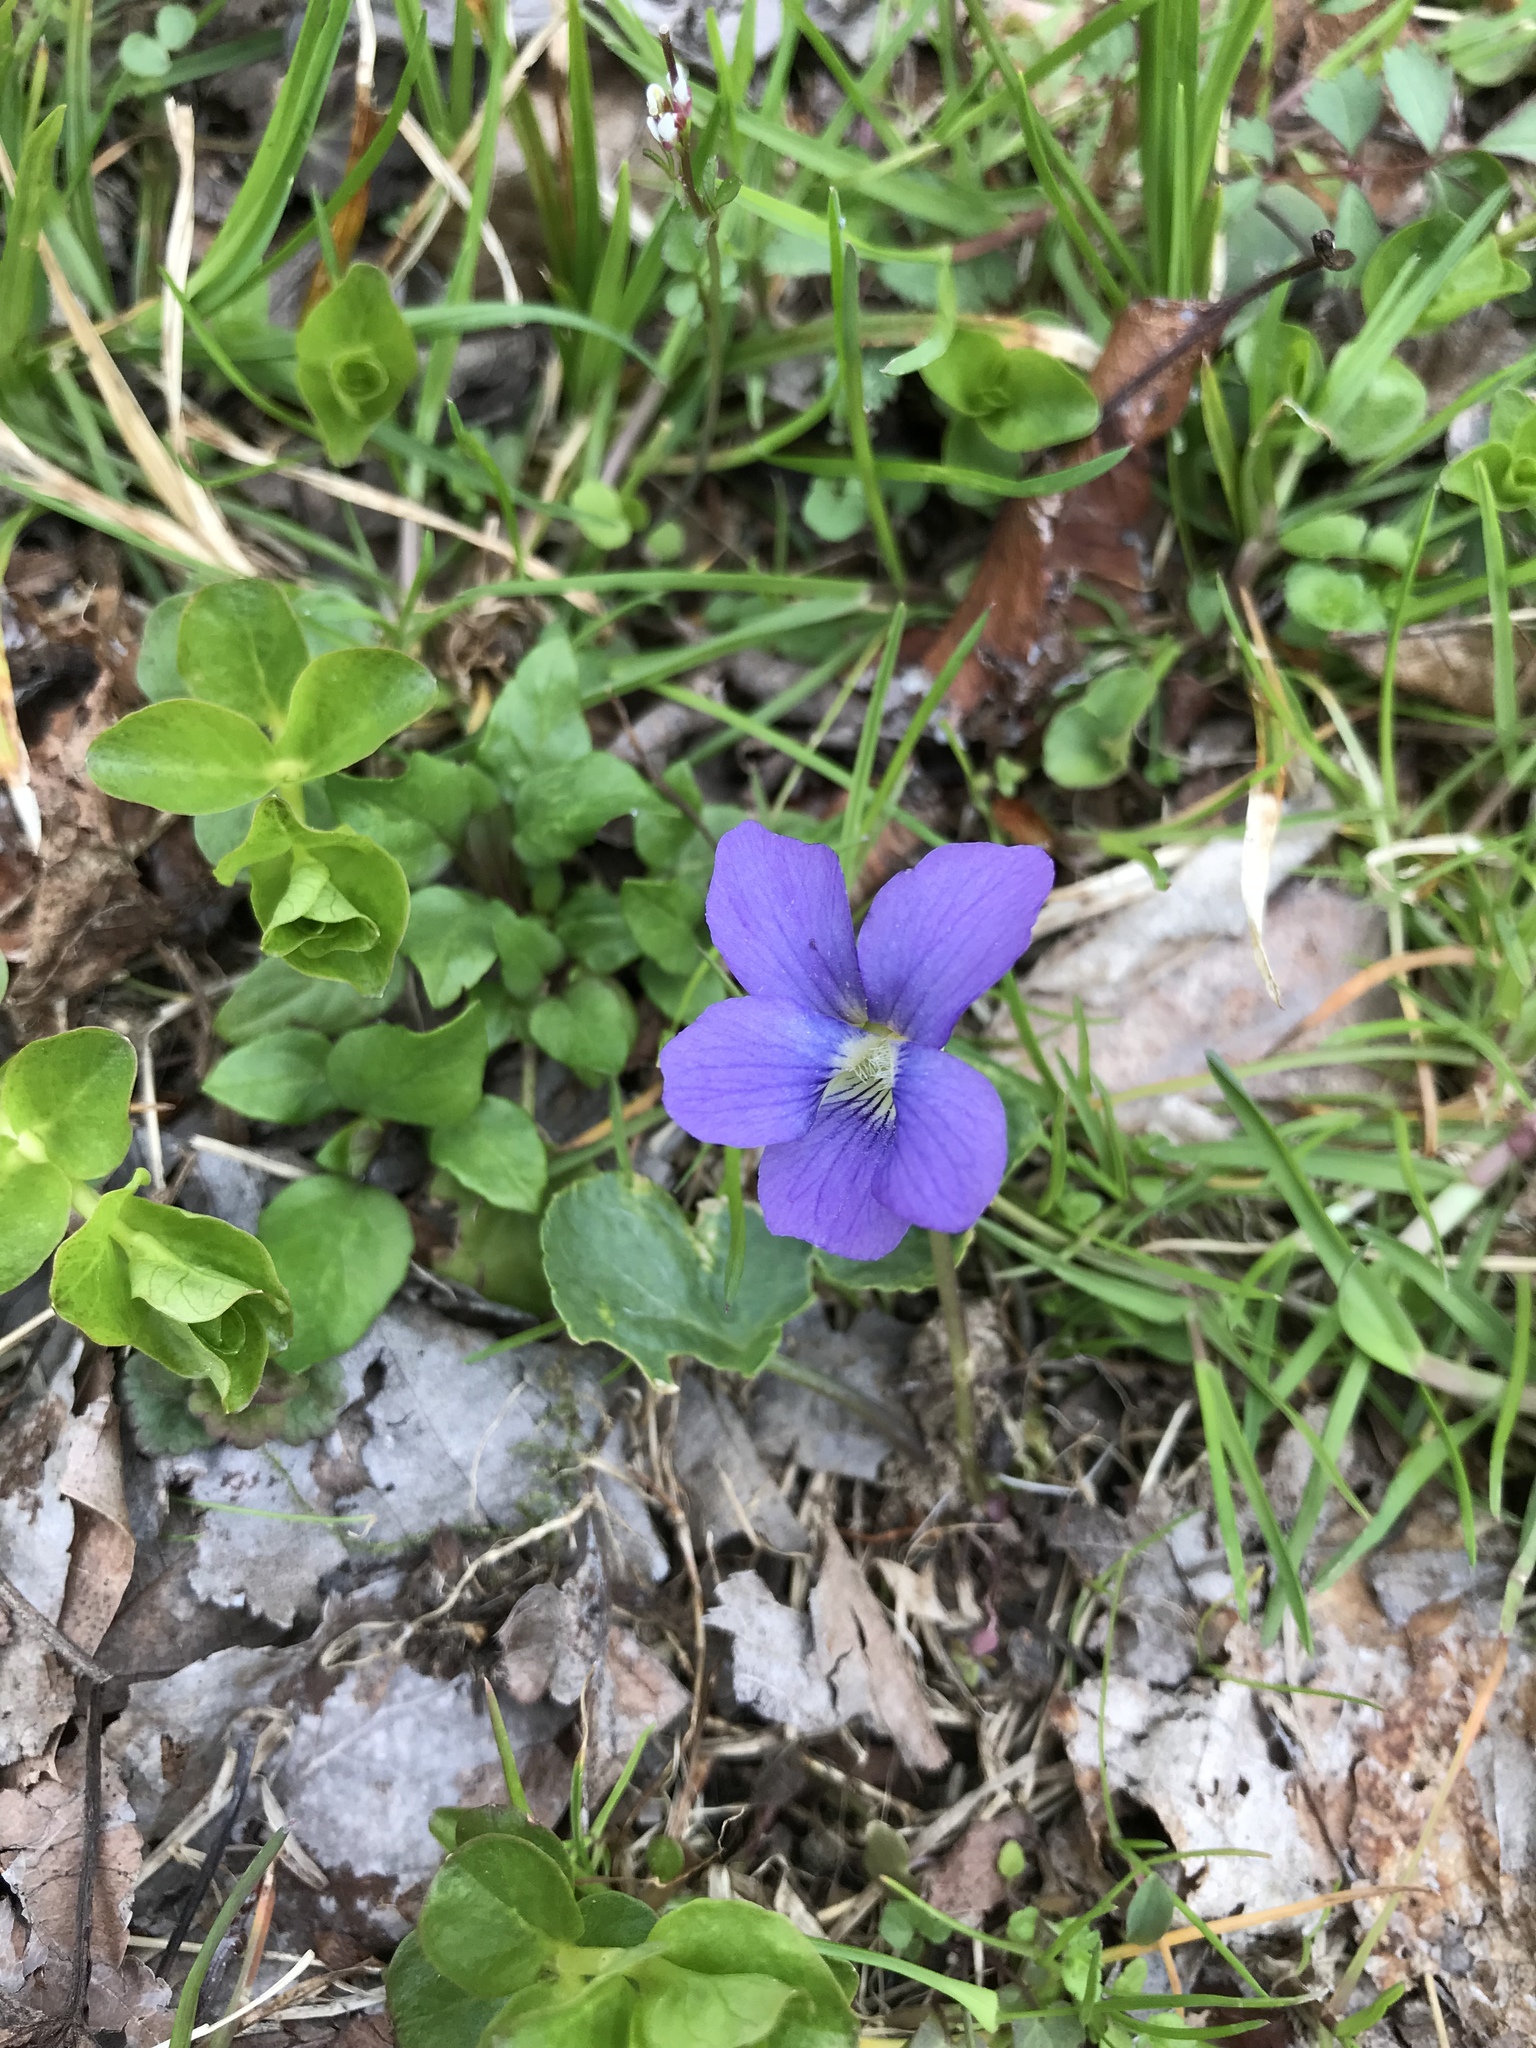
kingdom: Plantae
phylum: Tracheophyta
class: Magnoliopsida
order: Malpighiales
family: Violaceae
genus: Viola
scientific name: Viola sororia
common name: Dooryard violet
